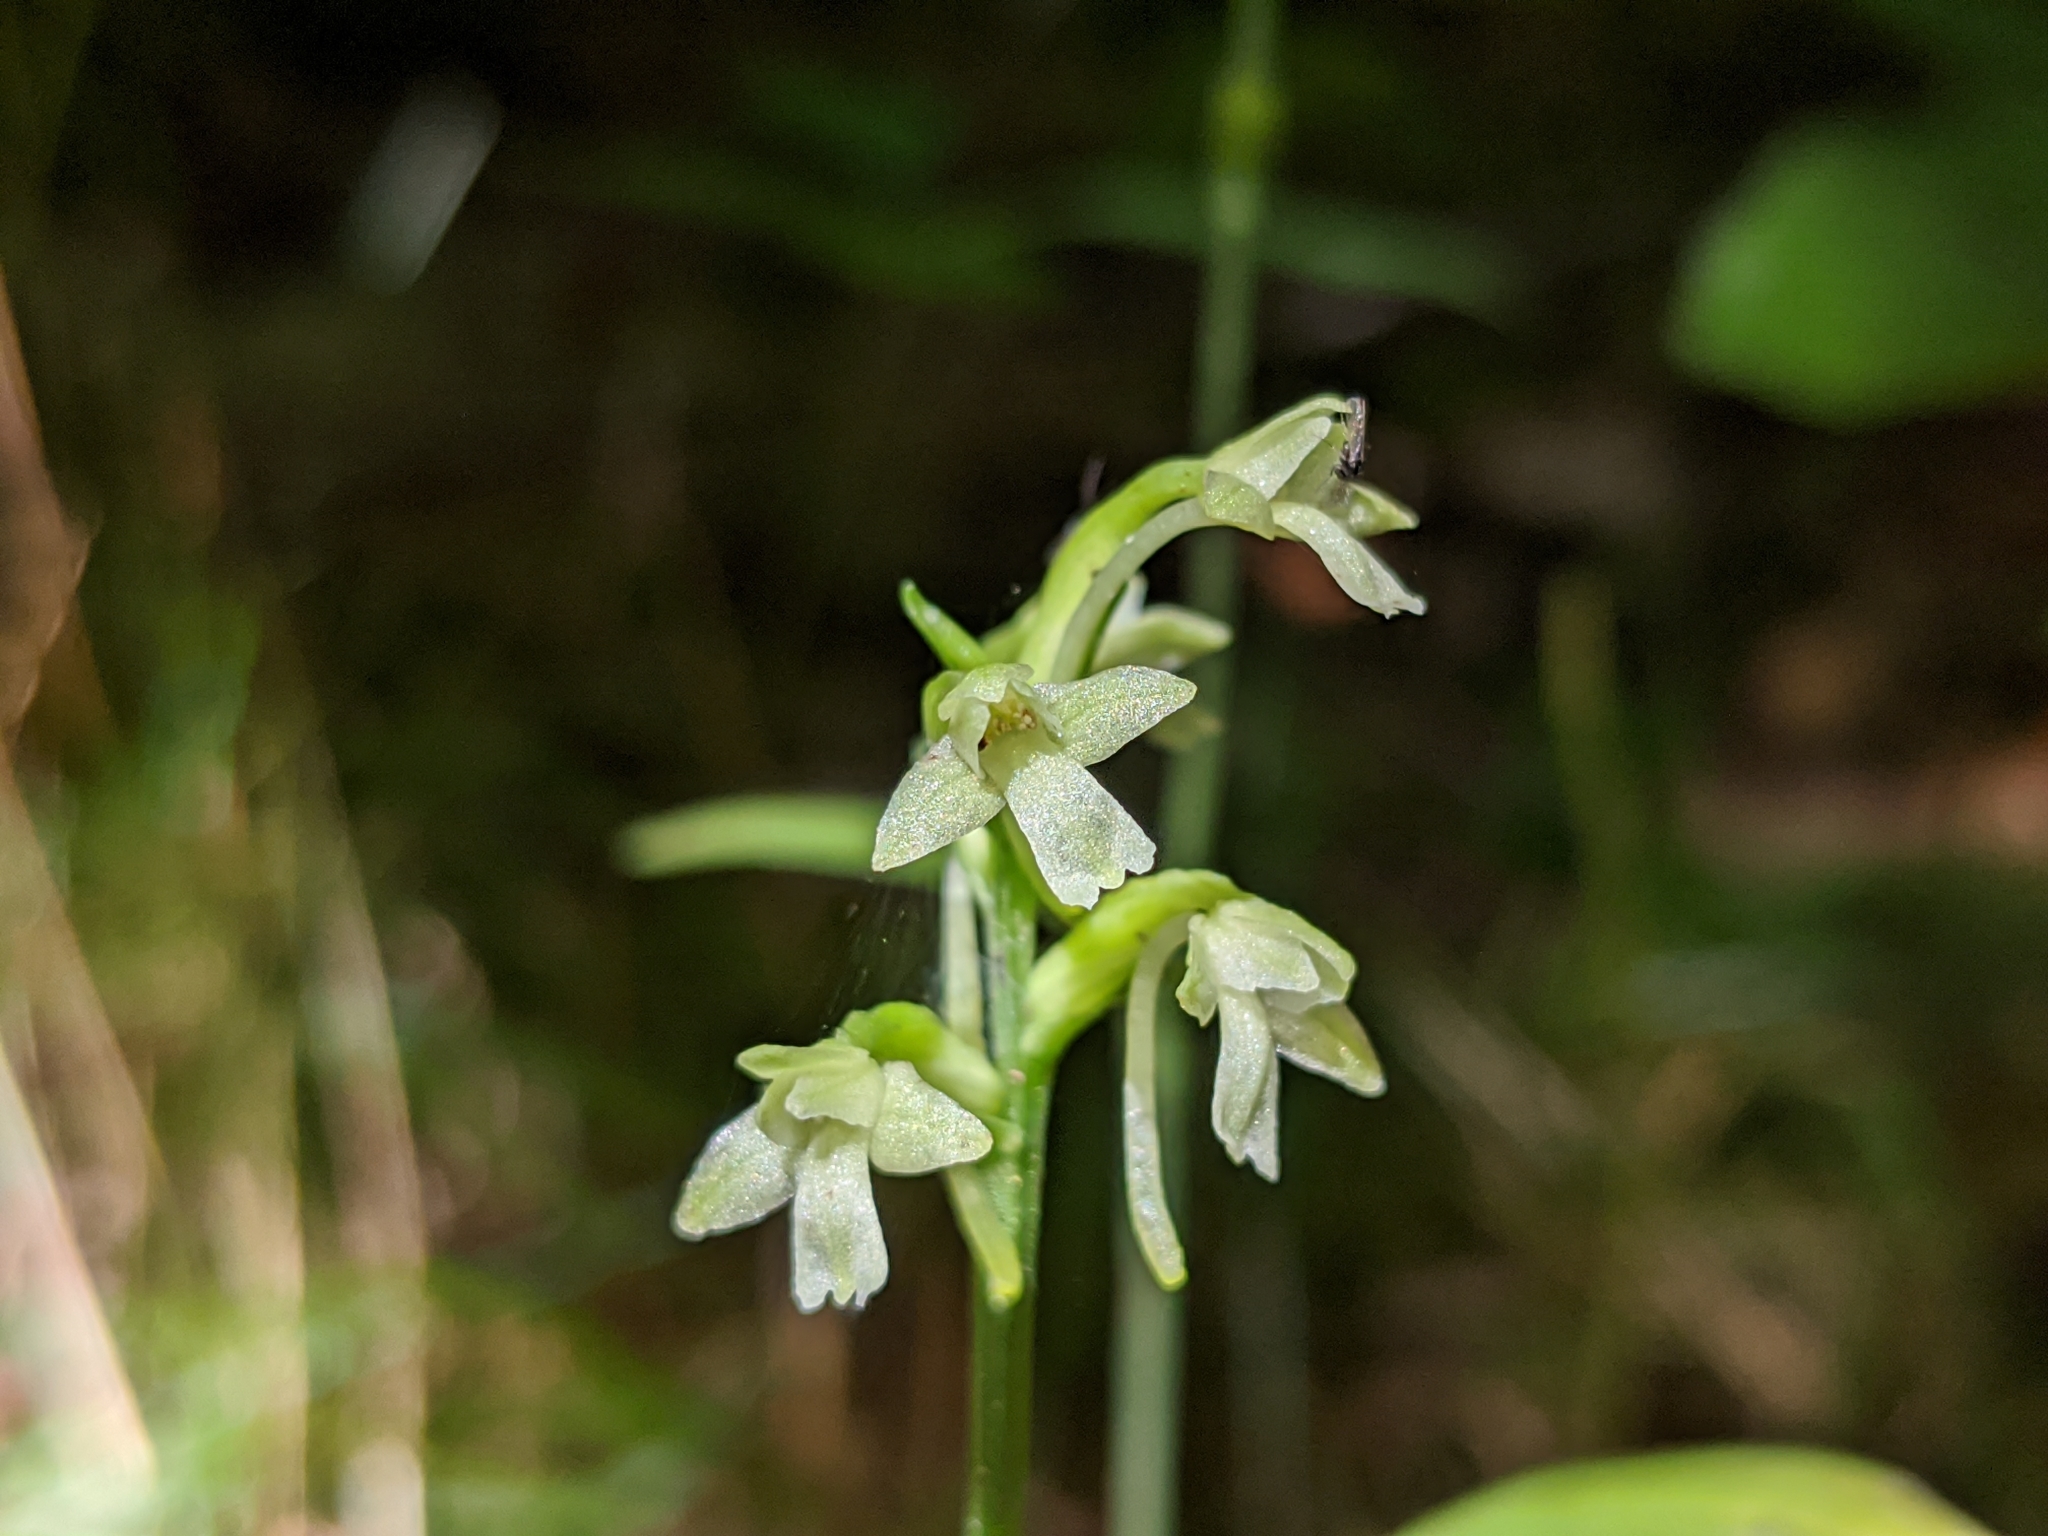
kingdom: Plantae
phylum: Tracheophyta
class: Liliopsida
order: Asparagales
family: Orchidaceae
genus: Platanthera
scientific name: Platanthera clavellata
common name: Club-spur orchid
